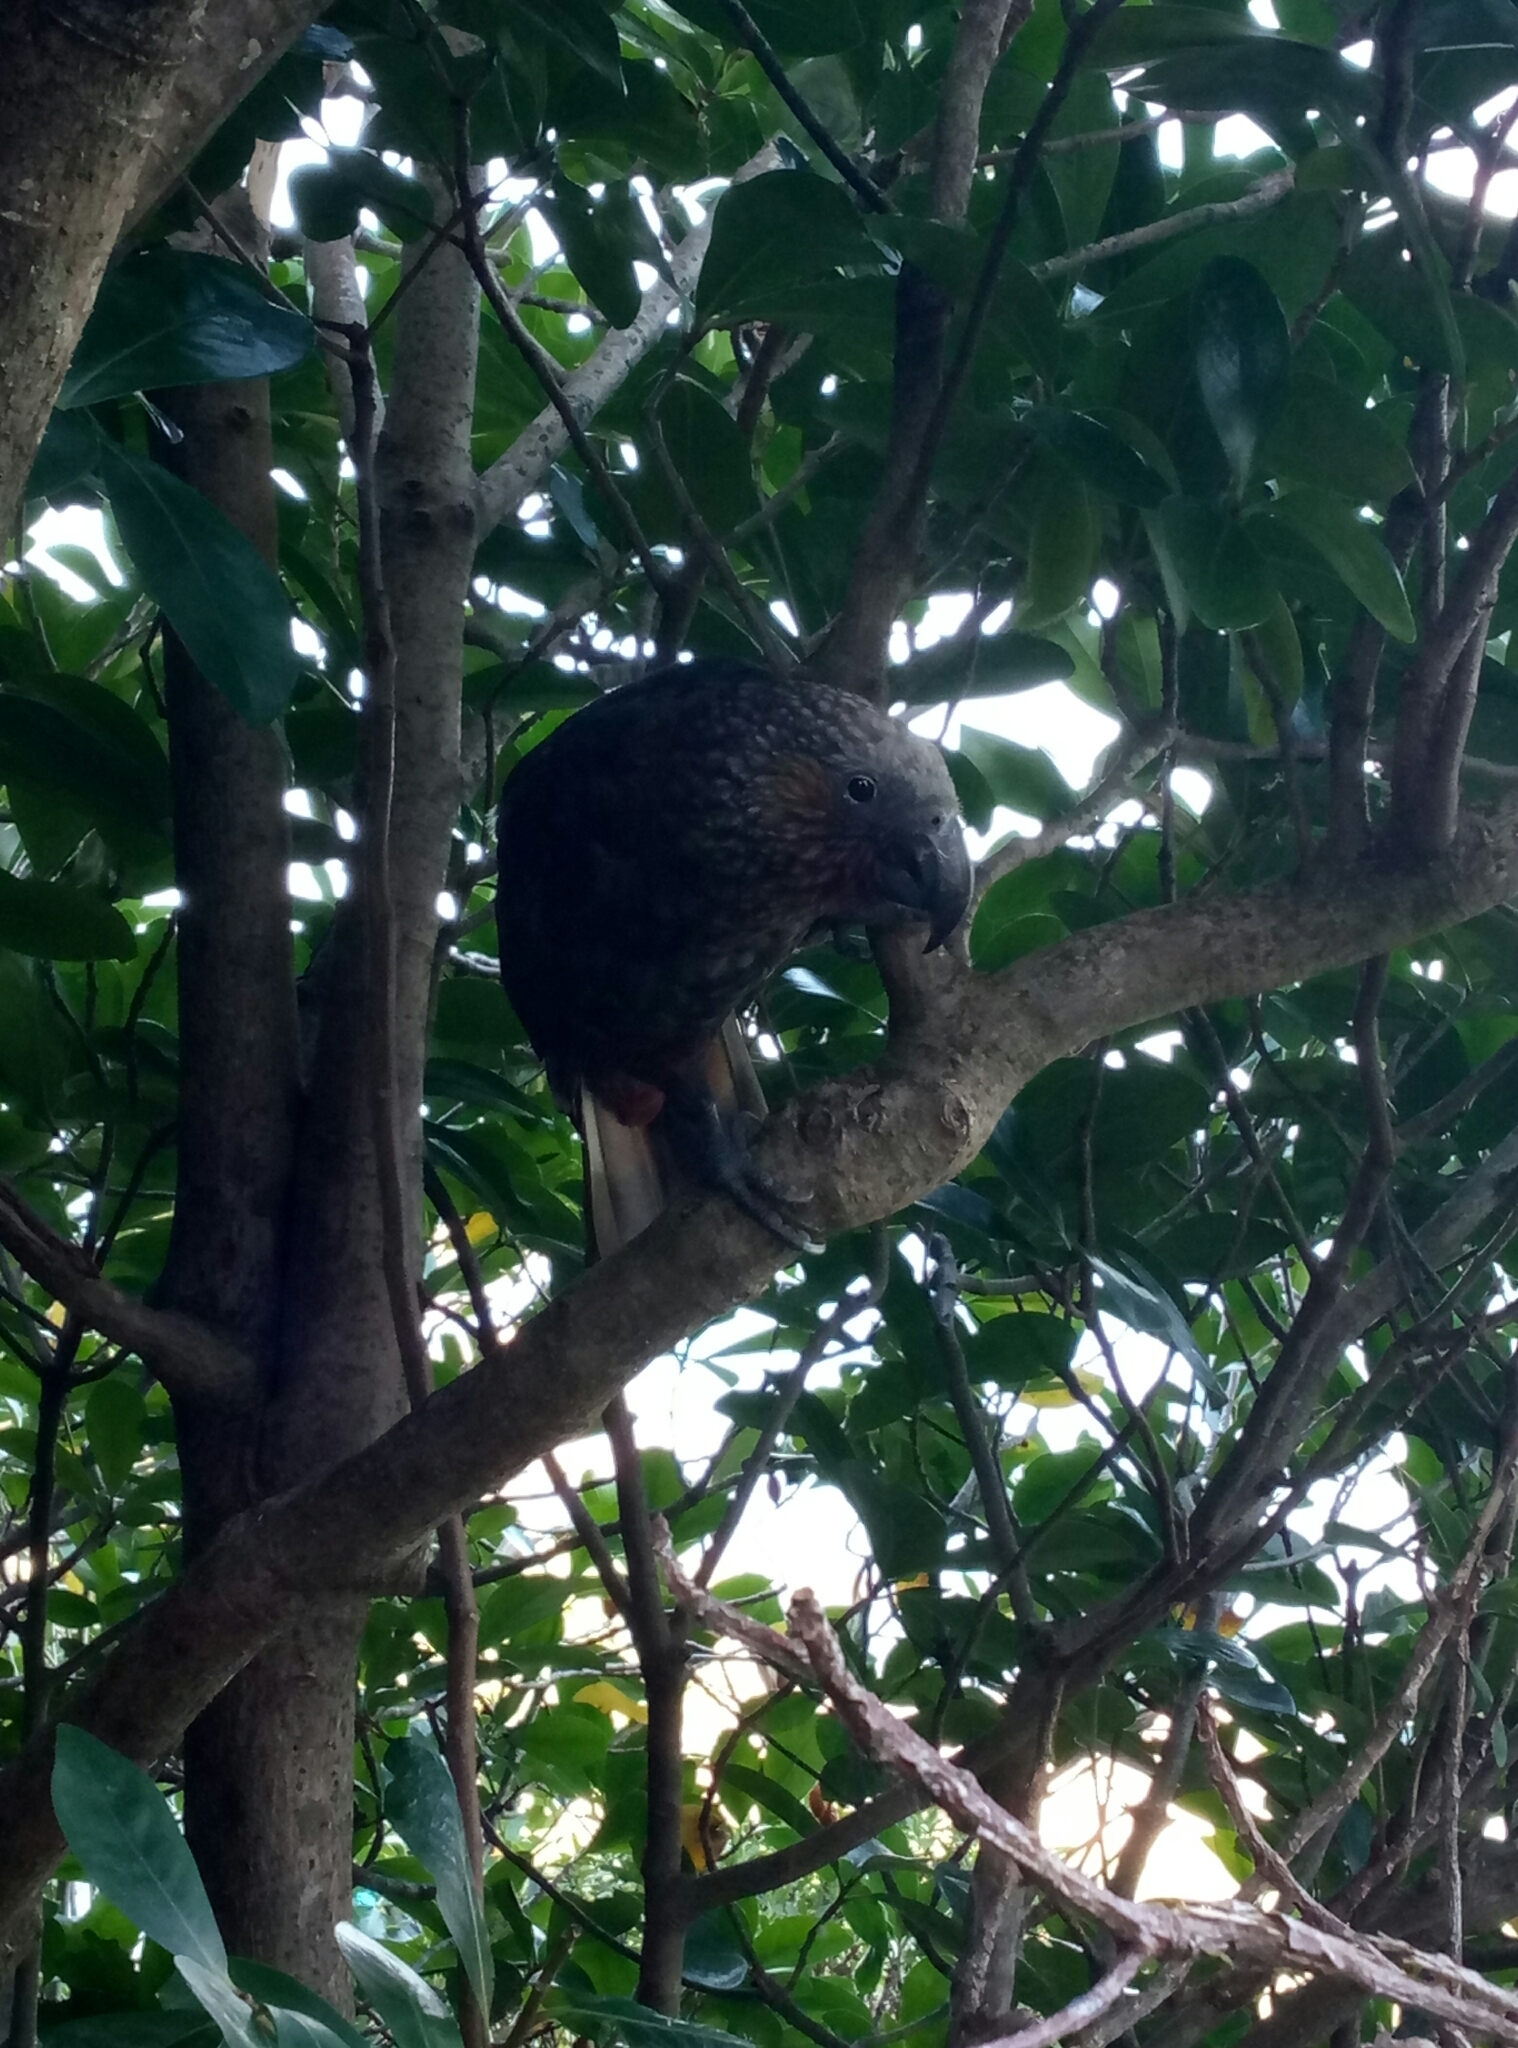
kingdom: Animalia
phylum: Chordata
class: Aves
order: Psittaciformes
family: Psittacidae
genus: Nestor
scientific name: Nestor meridionalis
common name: New zealand kaka
